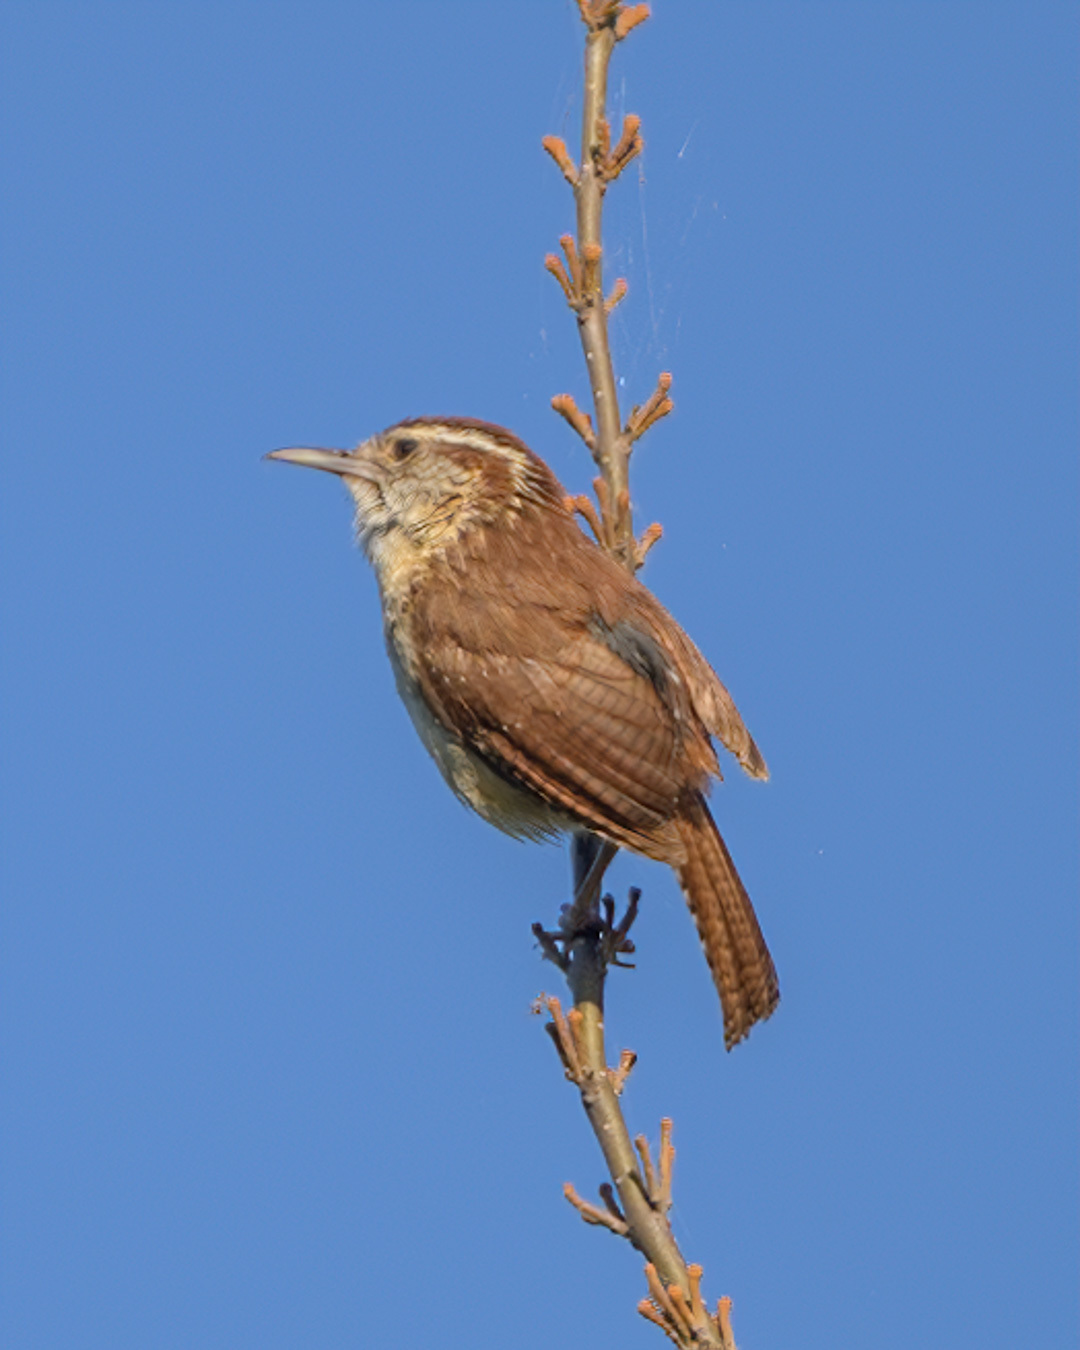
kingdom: Animalia
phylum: Chordata
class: Aves
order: Passeriformes
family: Troglodytidae
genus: Thryothorus
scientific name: Thryothorus ludovicianus
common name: Carolina wren
